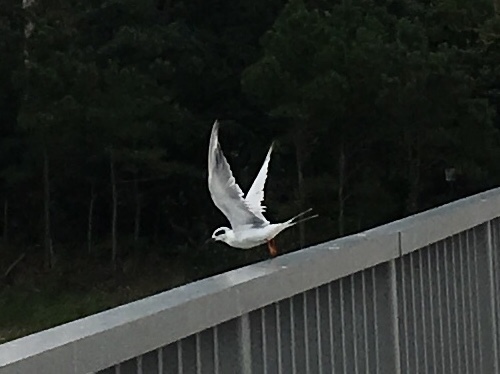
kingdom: Animalia
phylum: Chordata
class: Aves
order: Charadriiformes
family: Laridae
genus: Sterna
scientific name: Sterna forsteri
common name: Forster's tern
